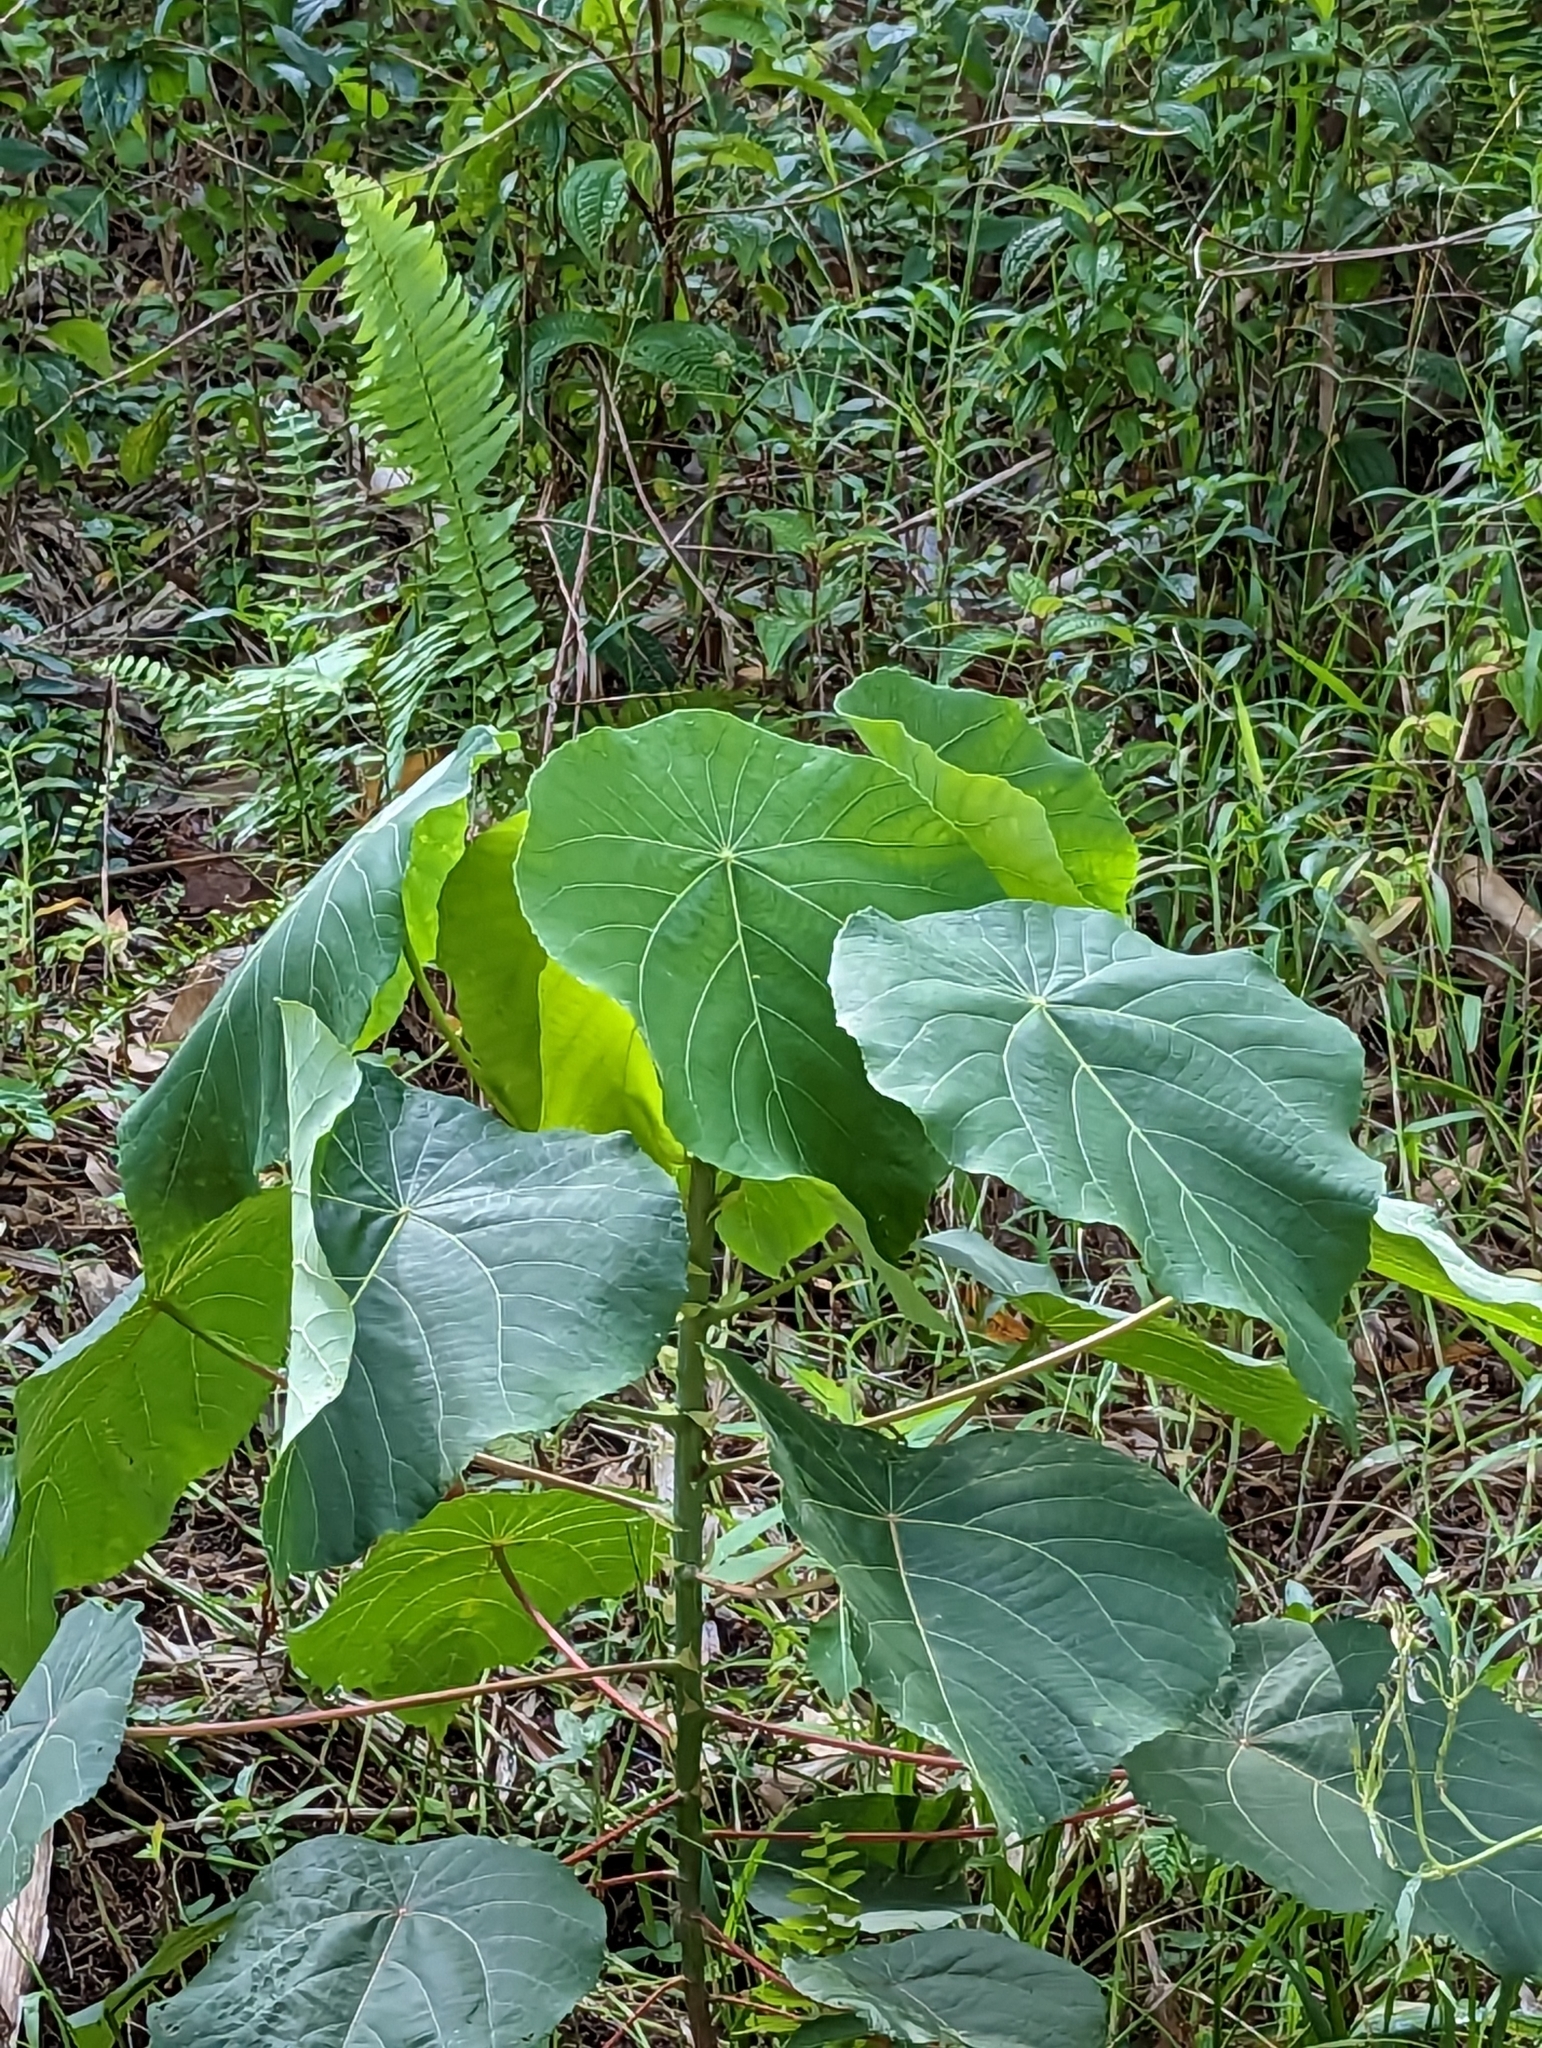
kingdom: Plantae
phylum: Tracheophyta
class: Magnoliopsida
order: Malpighiales
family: Euphorbiaceae
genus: Macaranga
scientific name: Macaranga tanarius
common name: Parasol leaf tree
